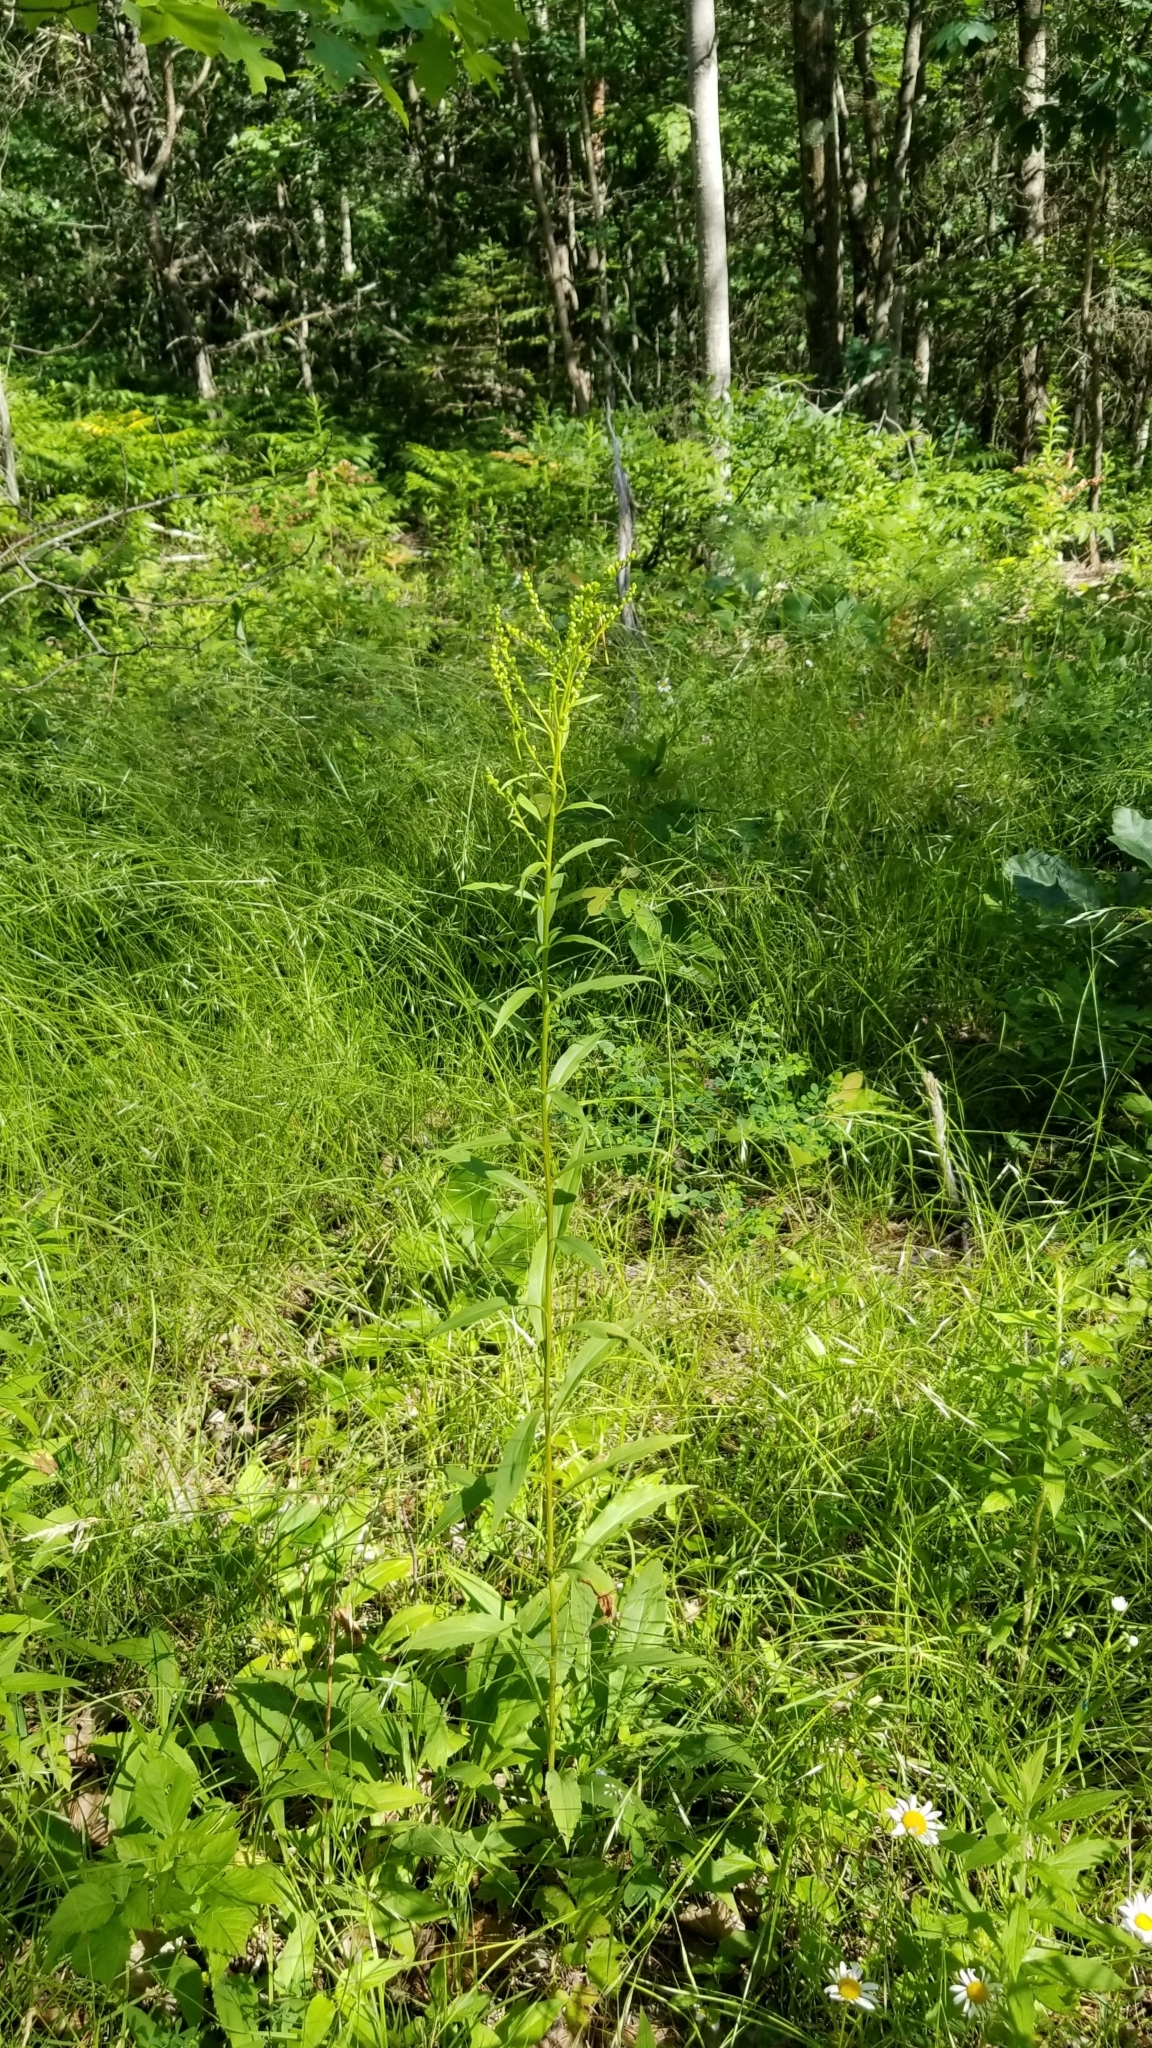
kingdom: Plantae
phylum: Tracheophyta
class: Magnoliopsida
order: Asterales
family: Asteraceae
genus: Solidago
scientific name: Solidago juncea
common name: Early goldenrod
